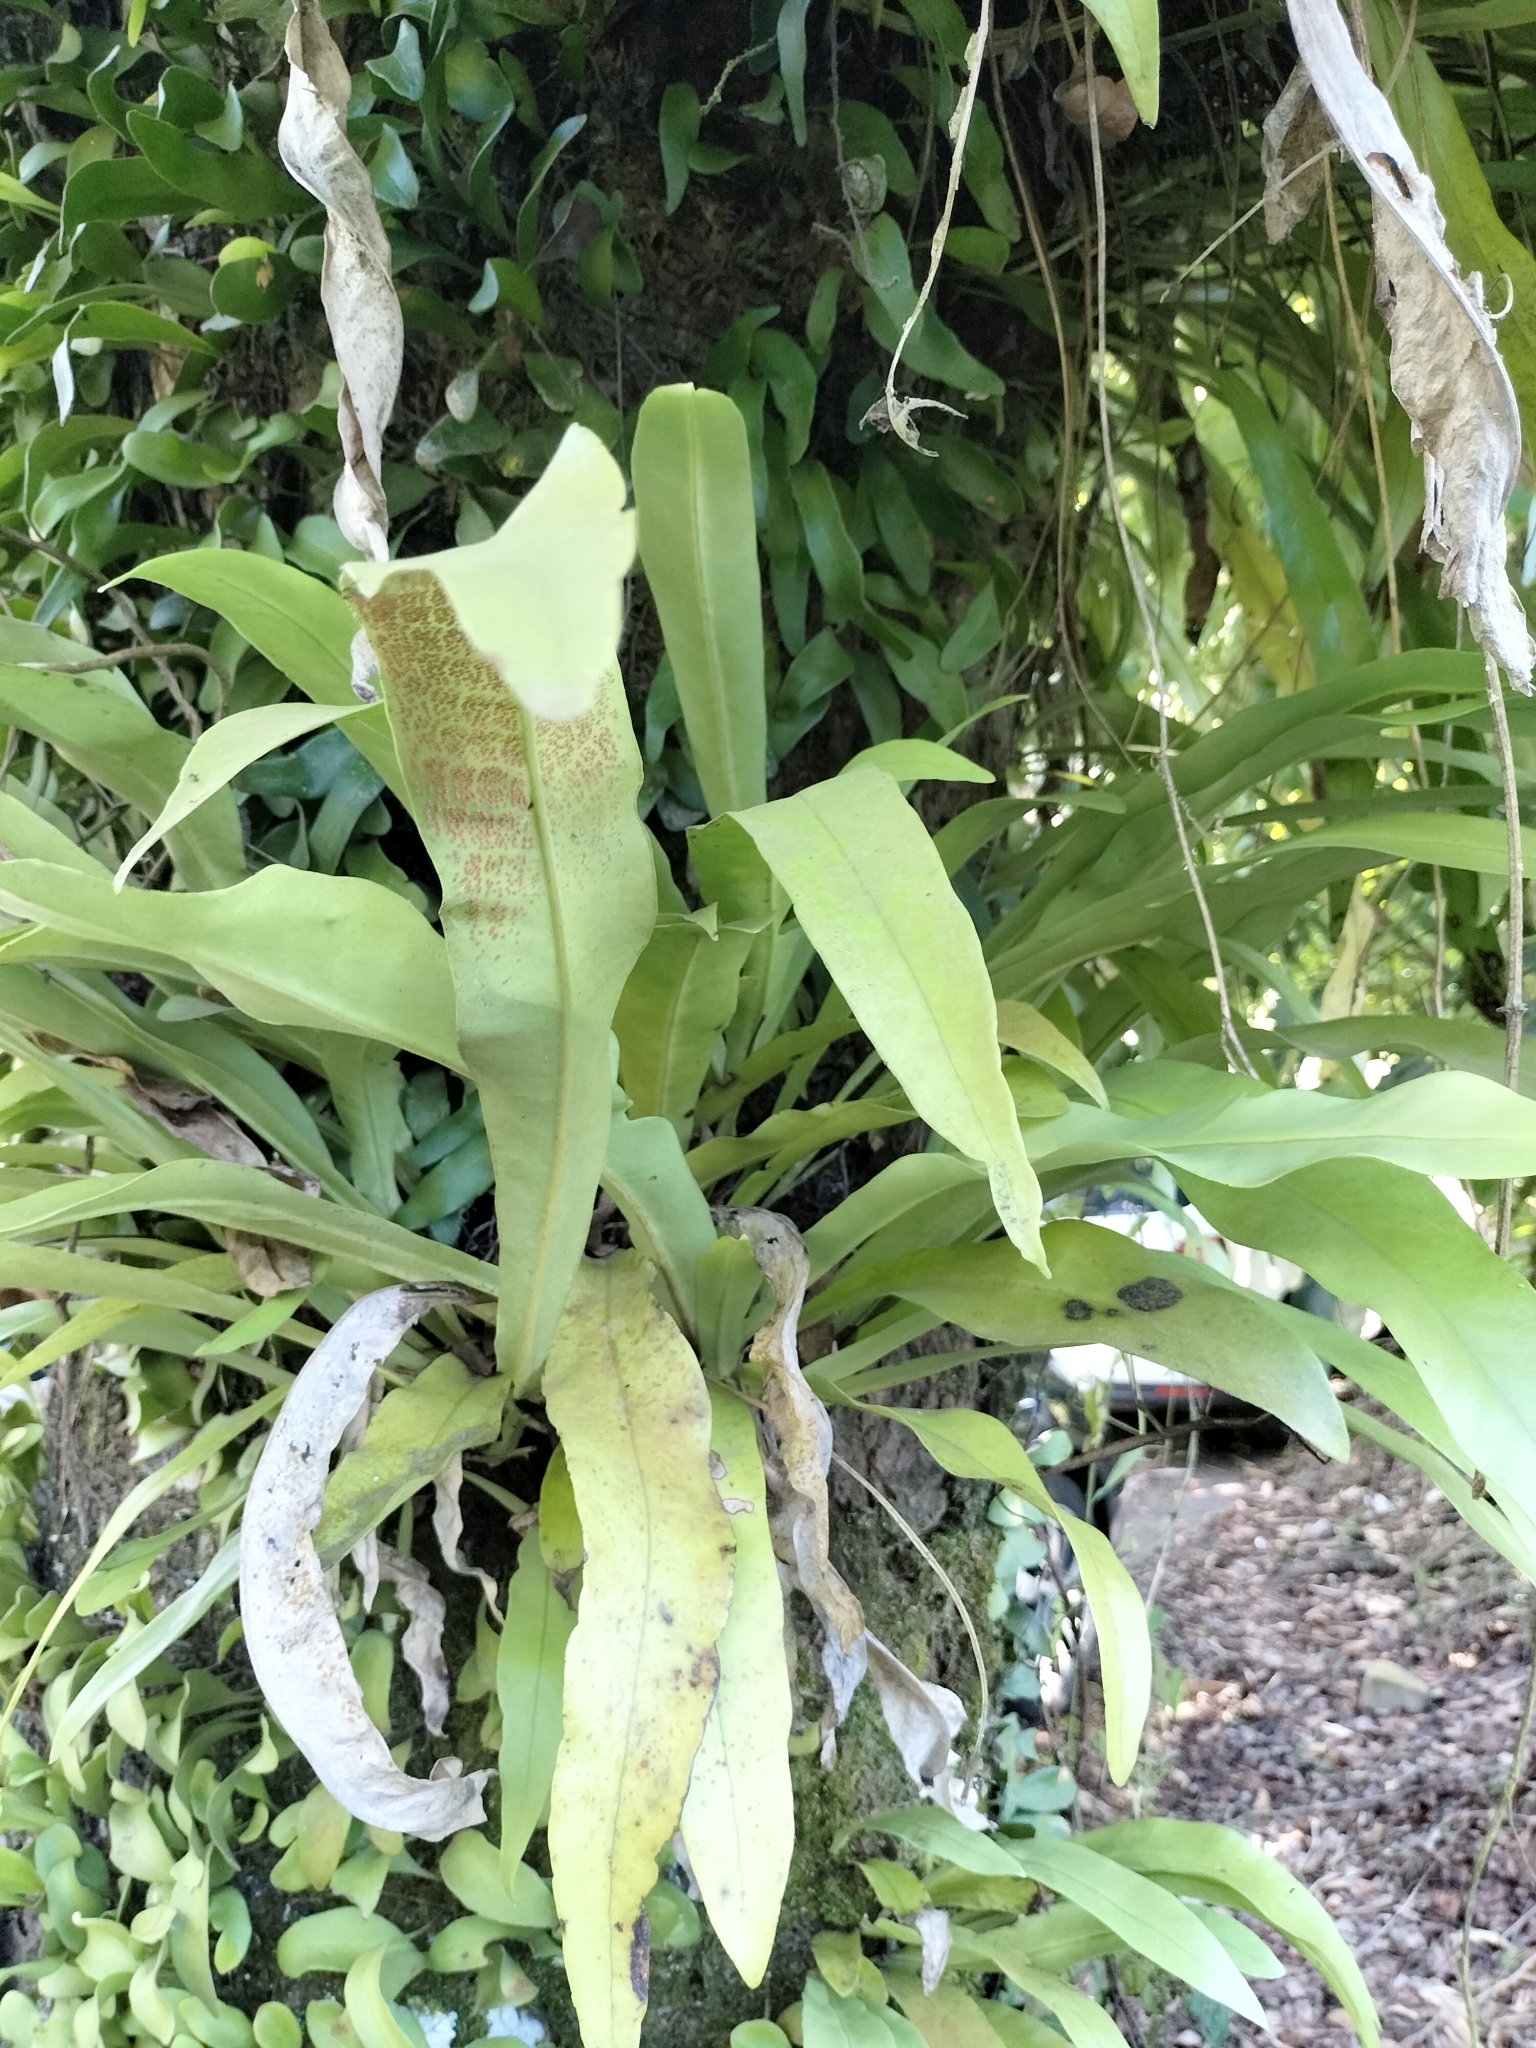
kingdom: Plantae
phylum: Tracheophyta
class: Polypodiopsida
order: Polypodiales
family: Polypodiaceae
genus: Microsorum
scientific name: Microsorum punctatum
